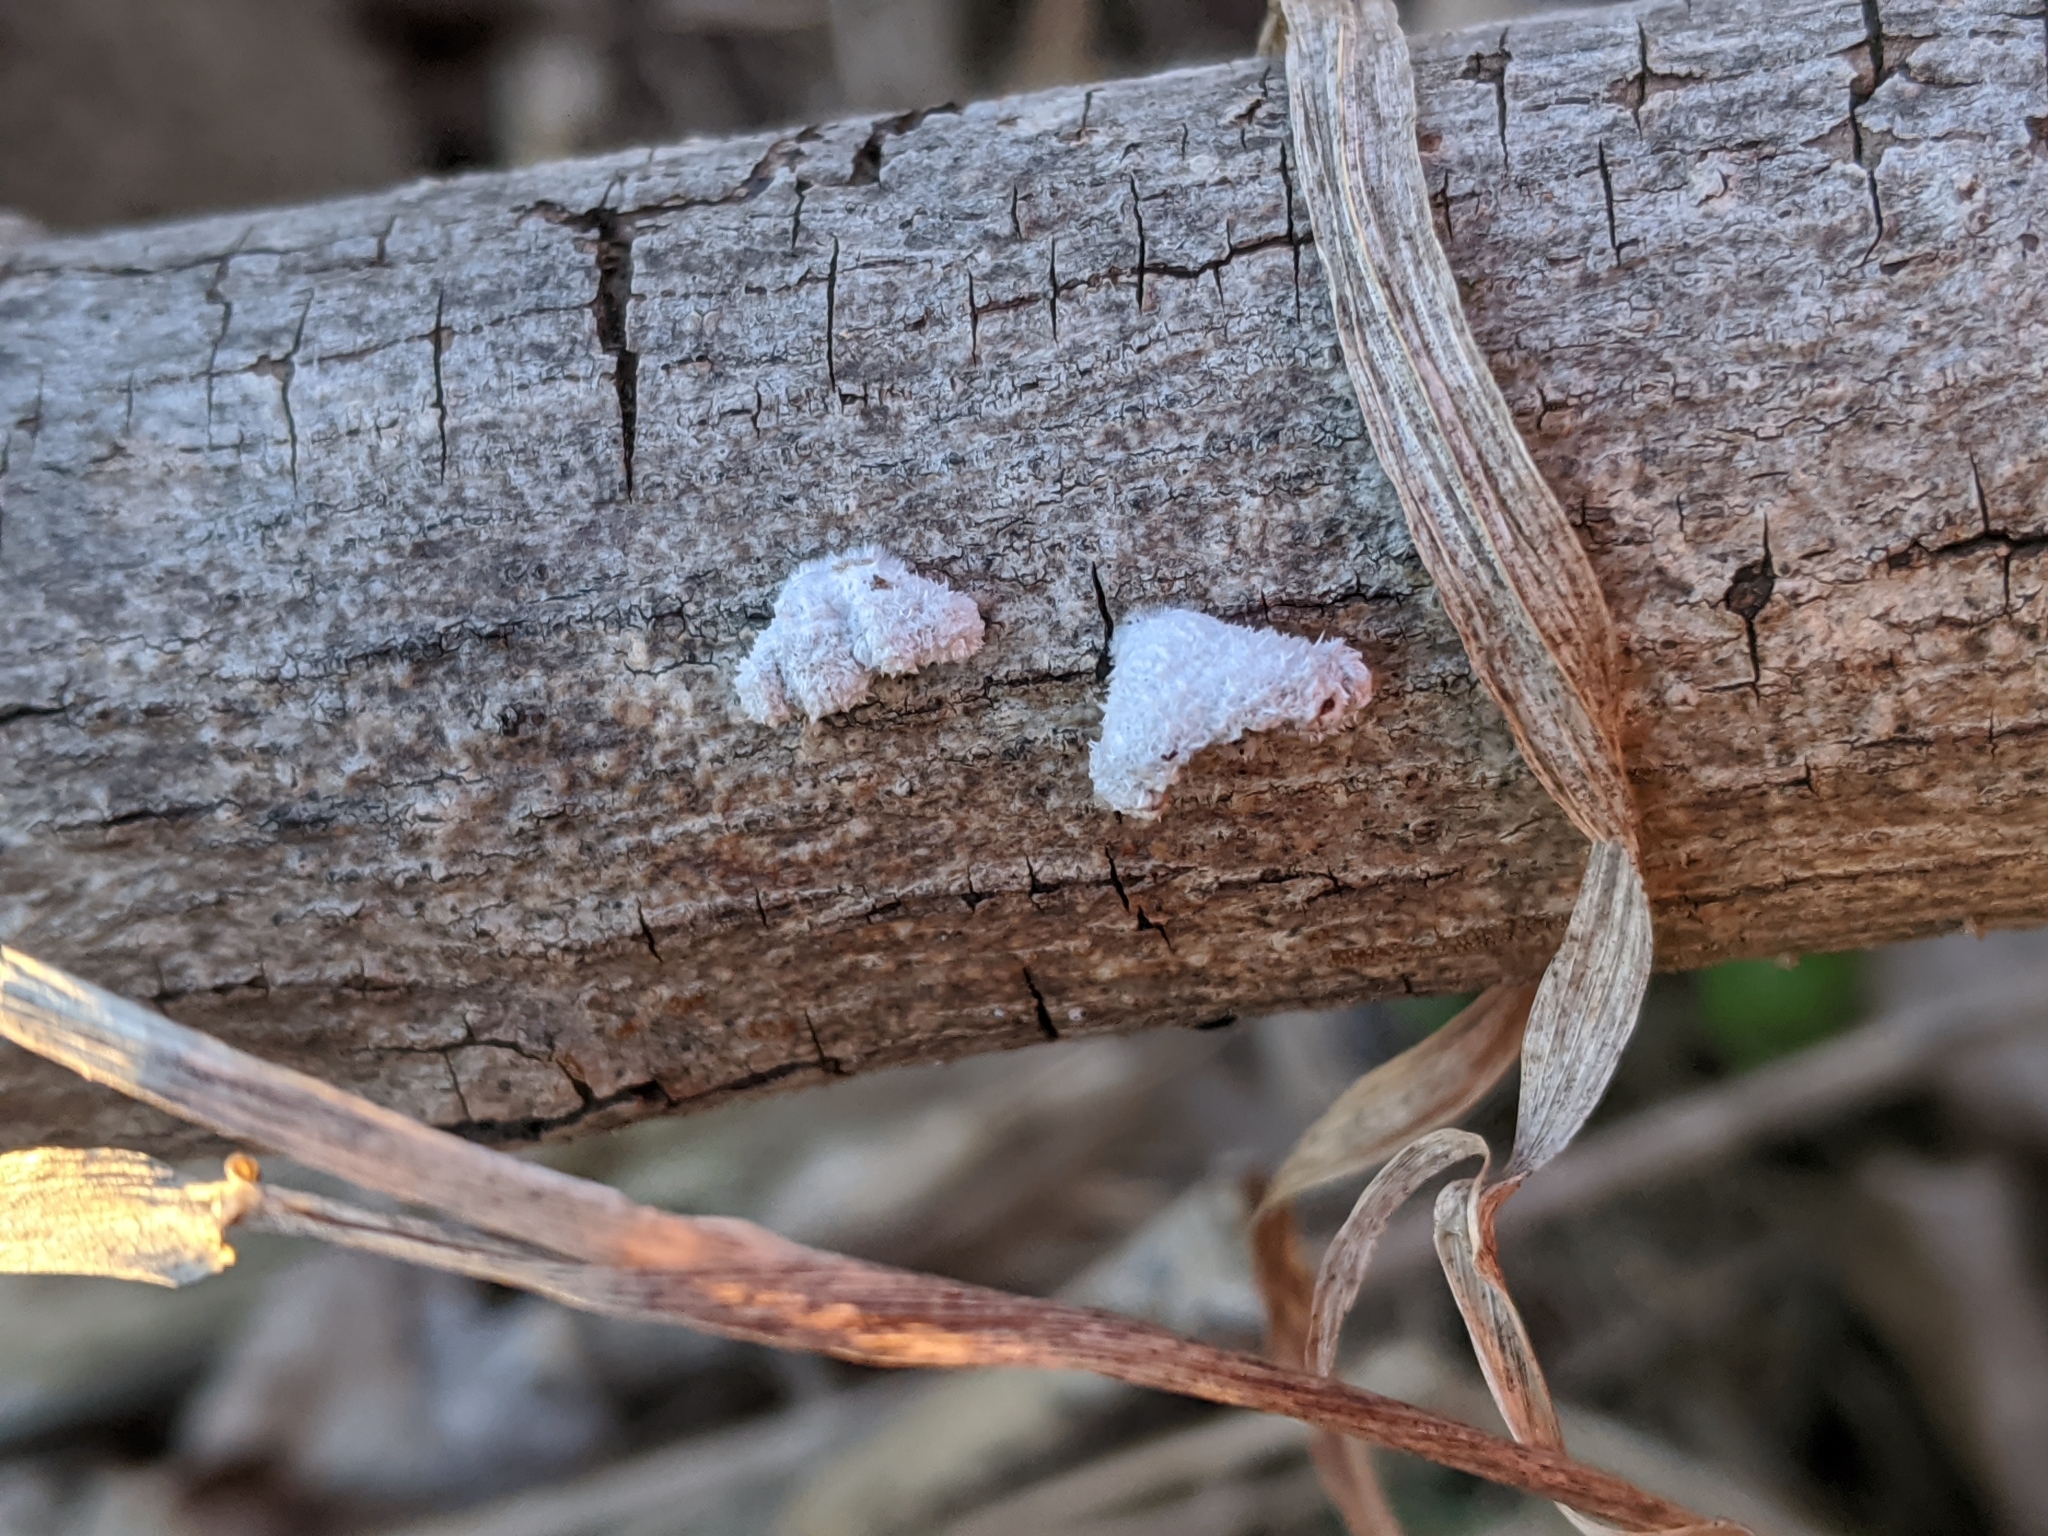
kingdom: Fungi
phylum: Basidiomycota
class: Agaricomycetes
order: Agaricales
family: Schizophyllaceae
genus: Schizophyllum
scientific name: Schizophyllum commune
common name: Common porecrust
